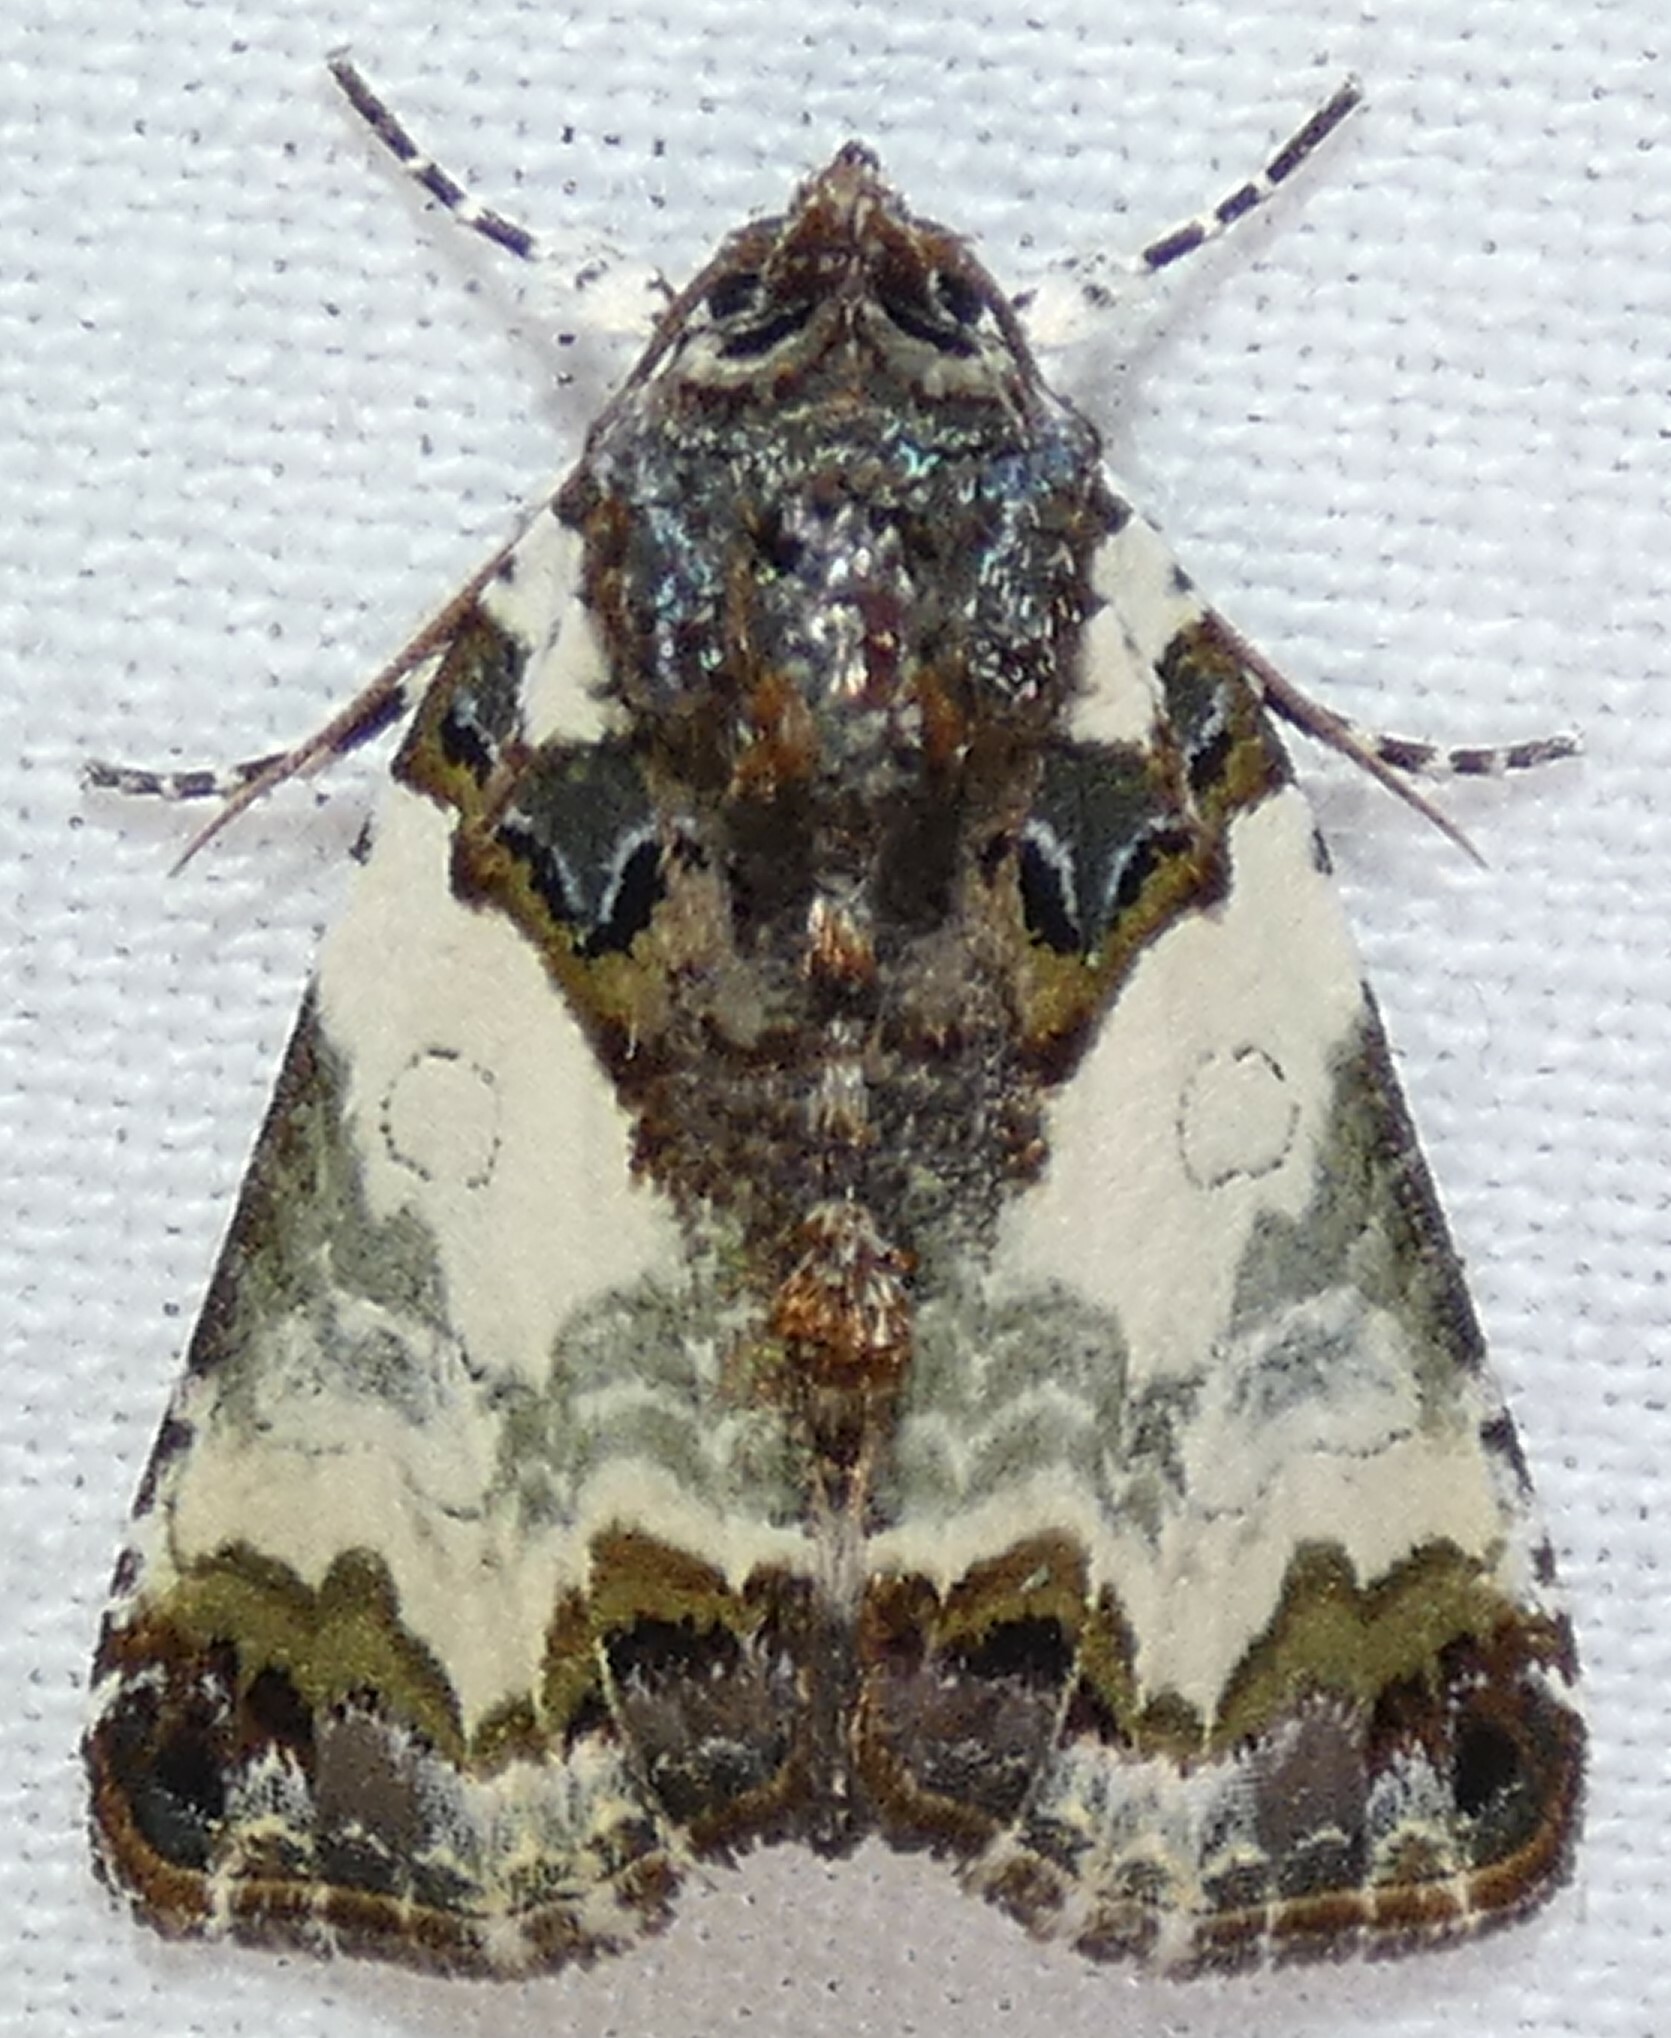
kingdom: Animalia
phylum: Arthropoda
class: Insecta
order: Lepidoptera
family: Noctuidae
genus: Cerma
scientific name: Cerma cerintha
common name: Tufted bird-dropping moth
